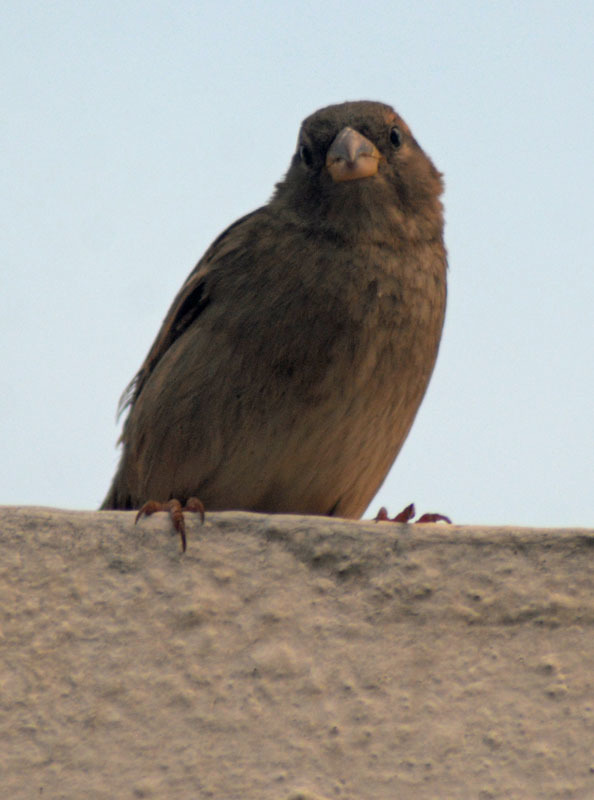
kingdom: Animalia
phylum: Chordata
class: Aves
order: Passeriformes
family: Passeridae
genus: Passer
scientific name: Passer domesticus
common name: House sparrow
